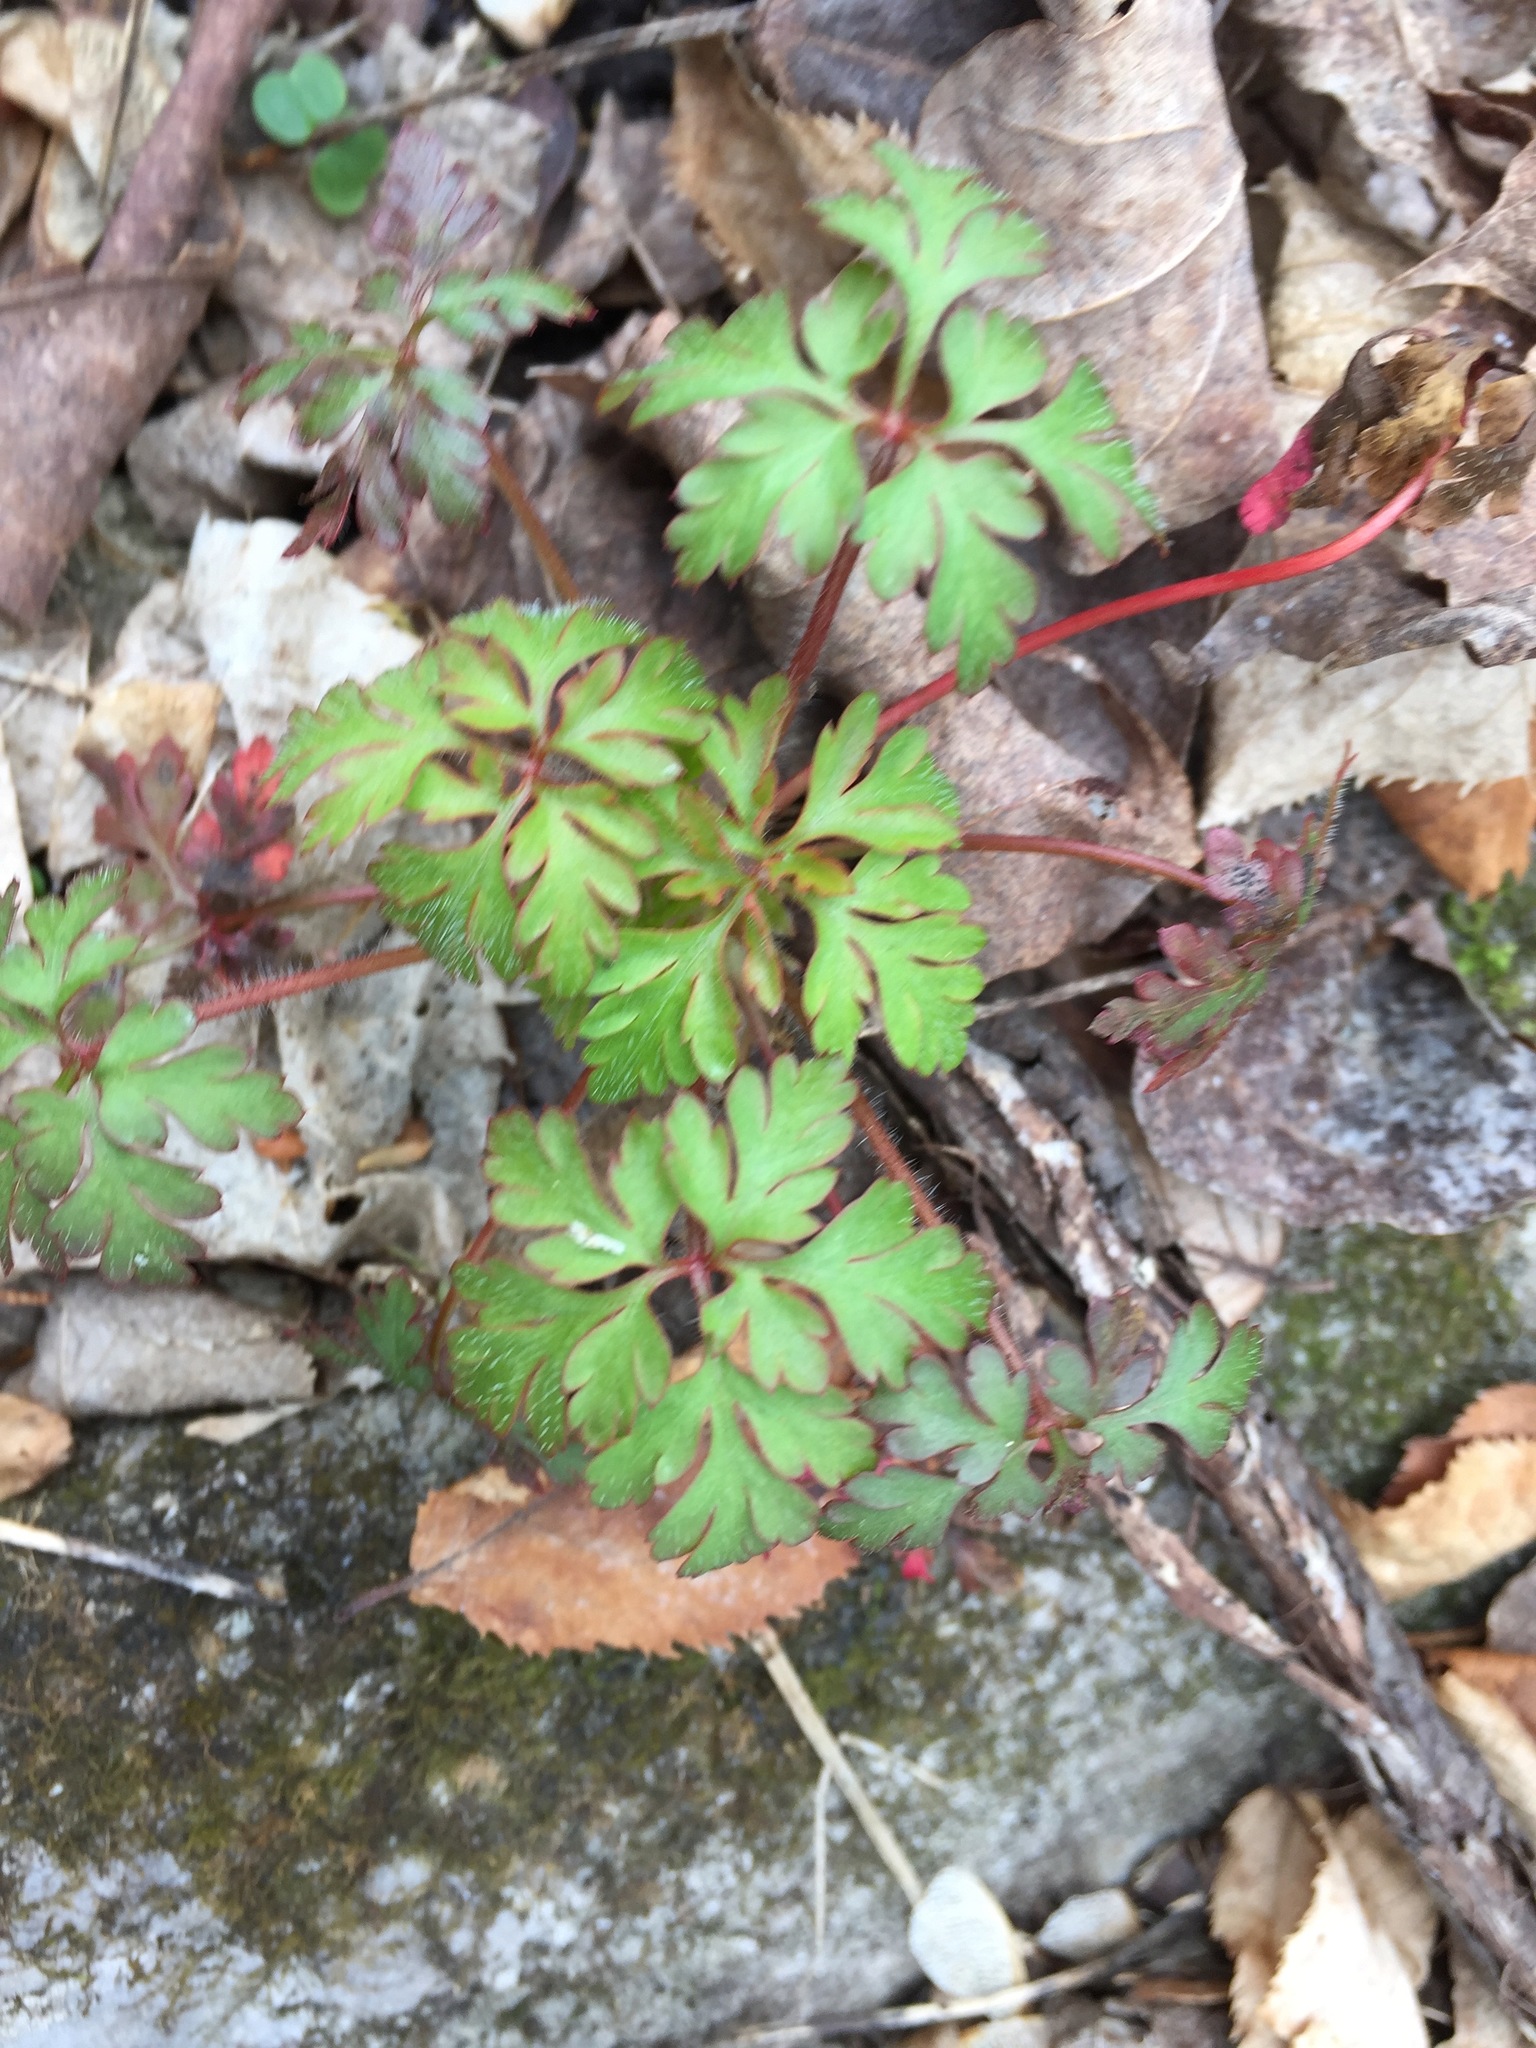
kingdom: Plantae
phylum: Tracheophyta
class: Magnoliopsida
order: Geraniales
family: Geraniaceae
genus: Geranium
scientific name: Geranium robertianum
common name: Herb-robert
